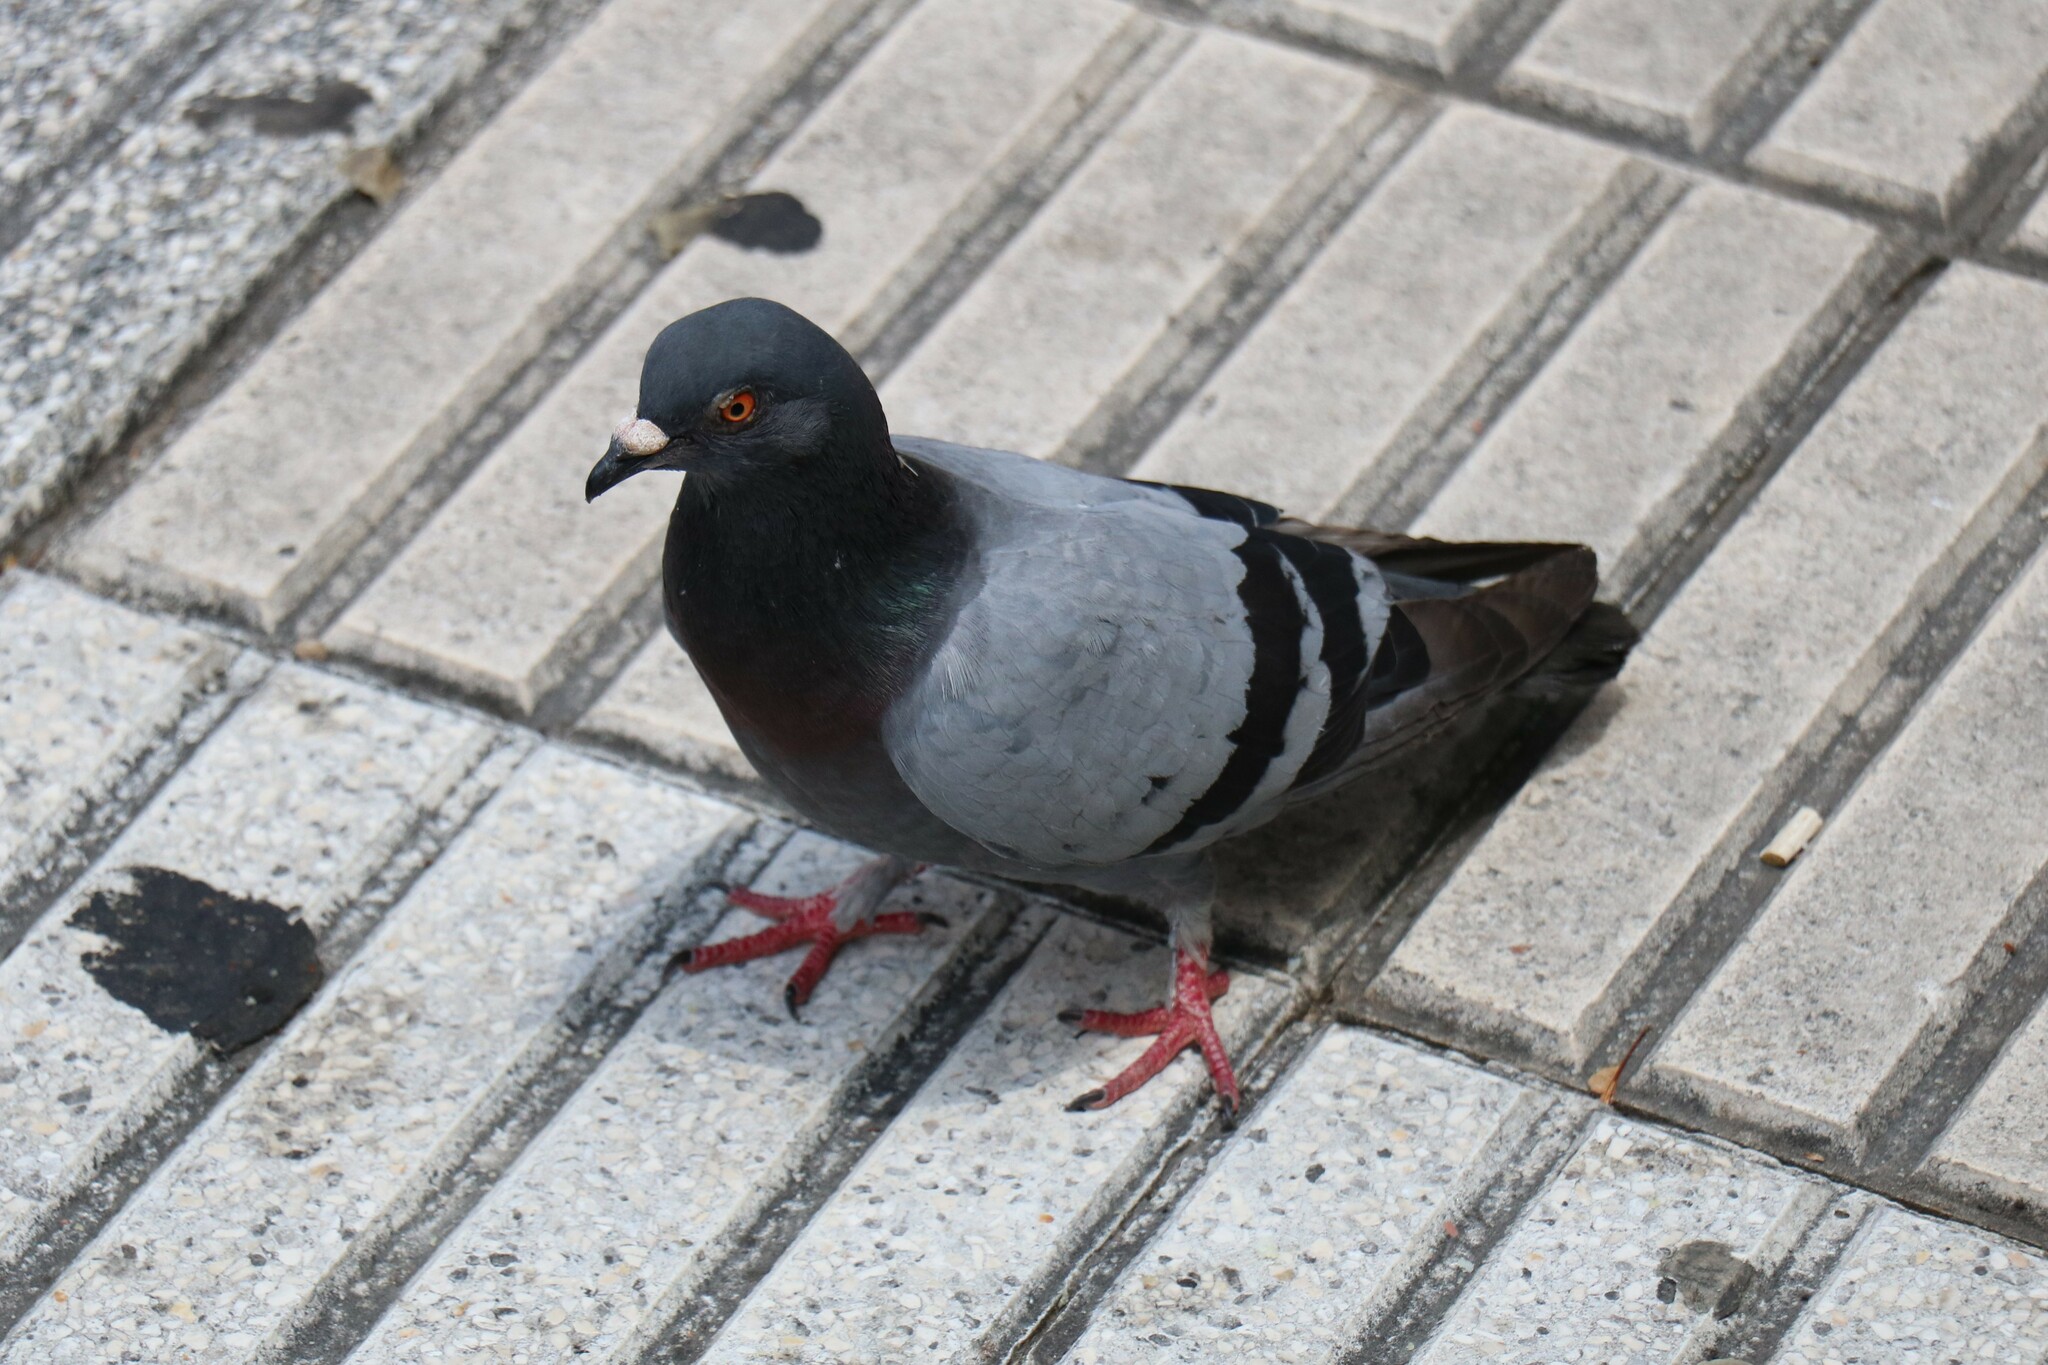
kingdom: Animalia
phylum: Chordata
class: Aves
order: Columbiformes
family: Columbidae
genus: Columba
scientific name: Columba livia
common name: Rock pigeon
